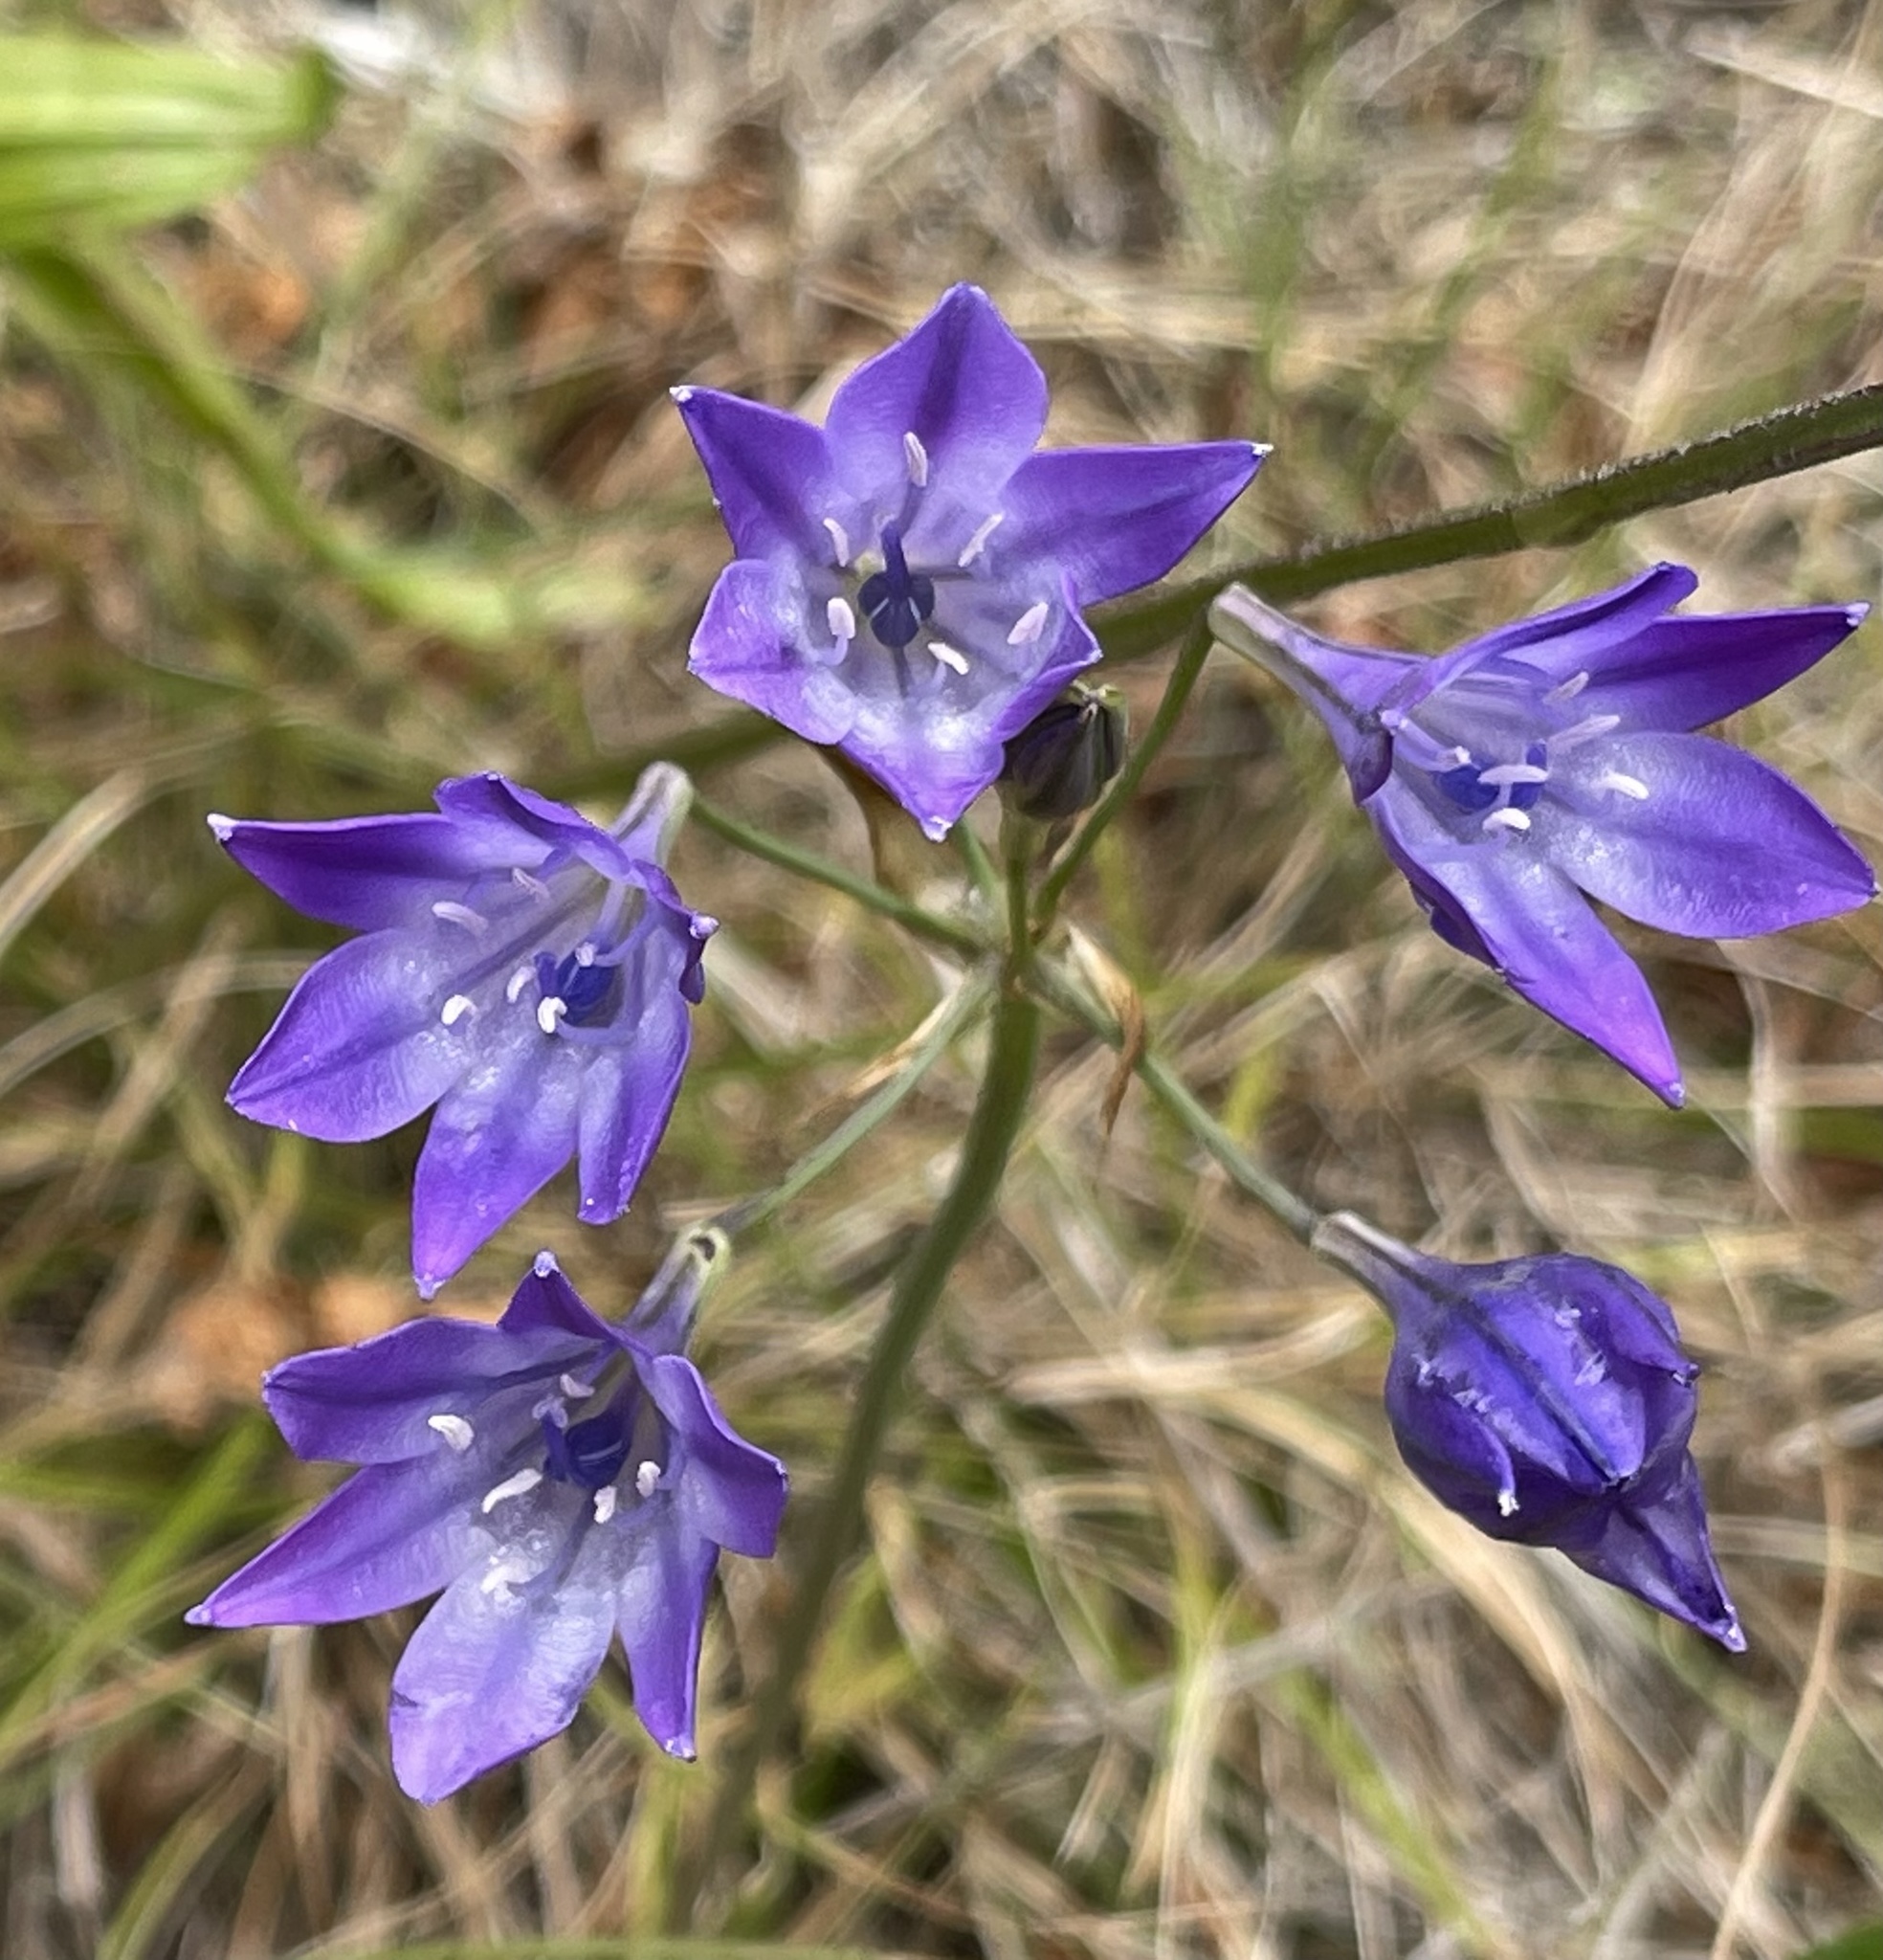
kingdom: Plantae
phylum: Tracheophyta
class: Liliopsida
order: Asparagales
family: Asparagaceae
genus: Triteleia
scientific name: Triteleia laxa
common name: Triplet-lily
